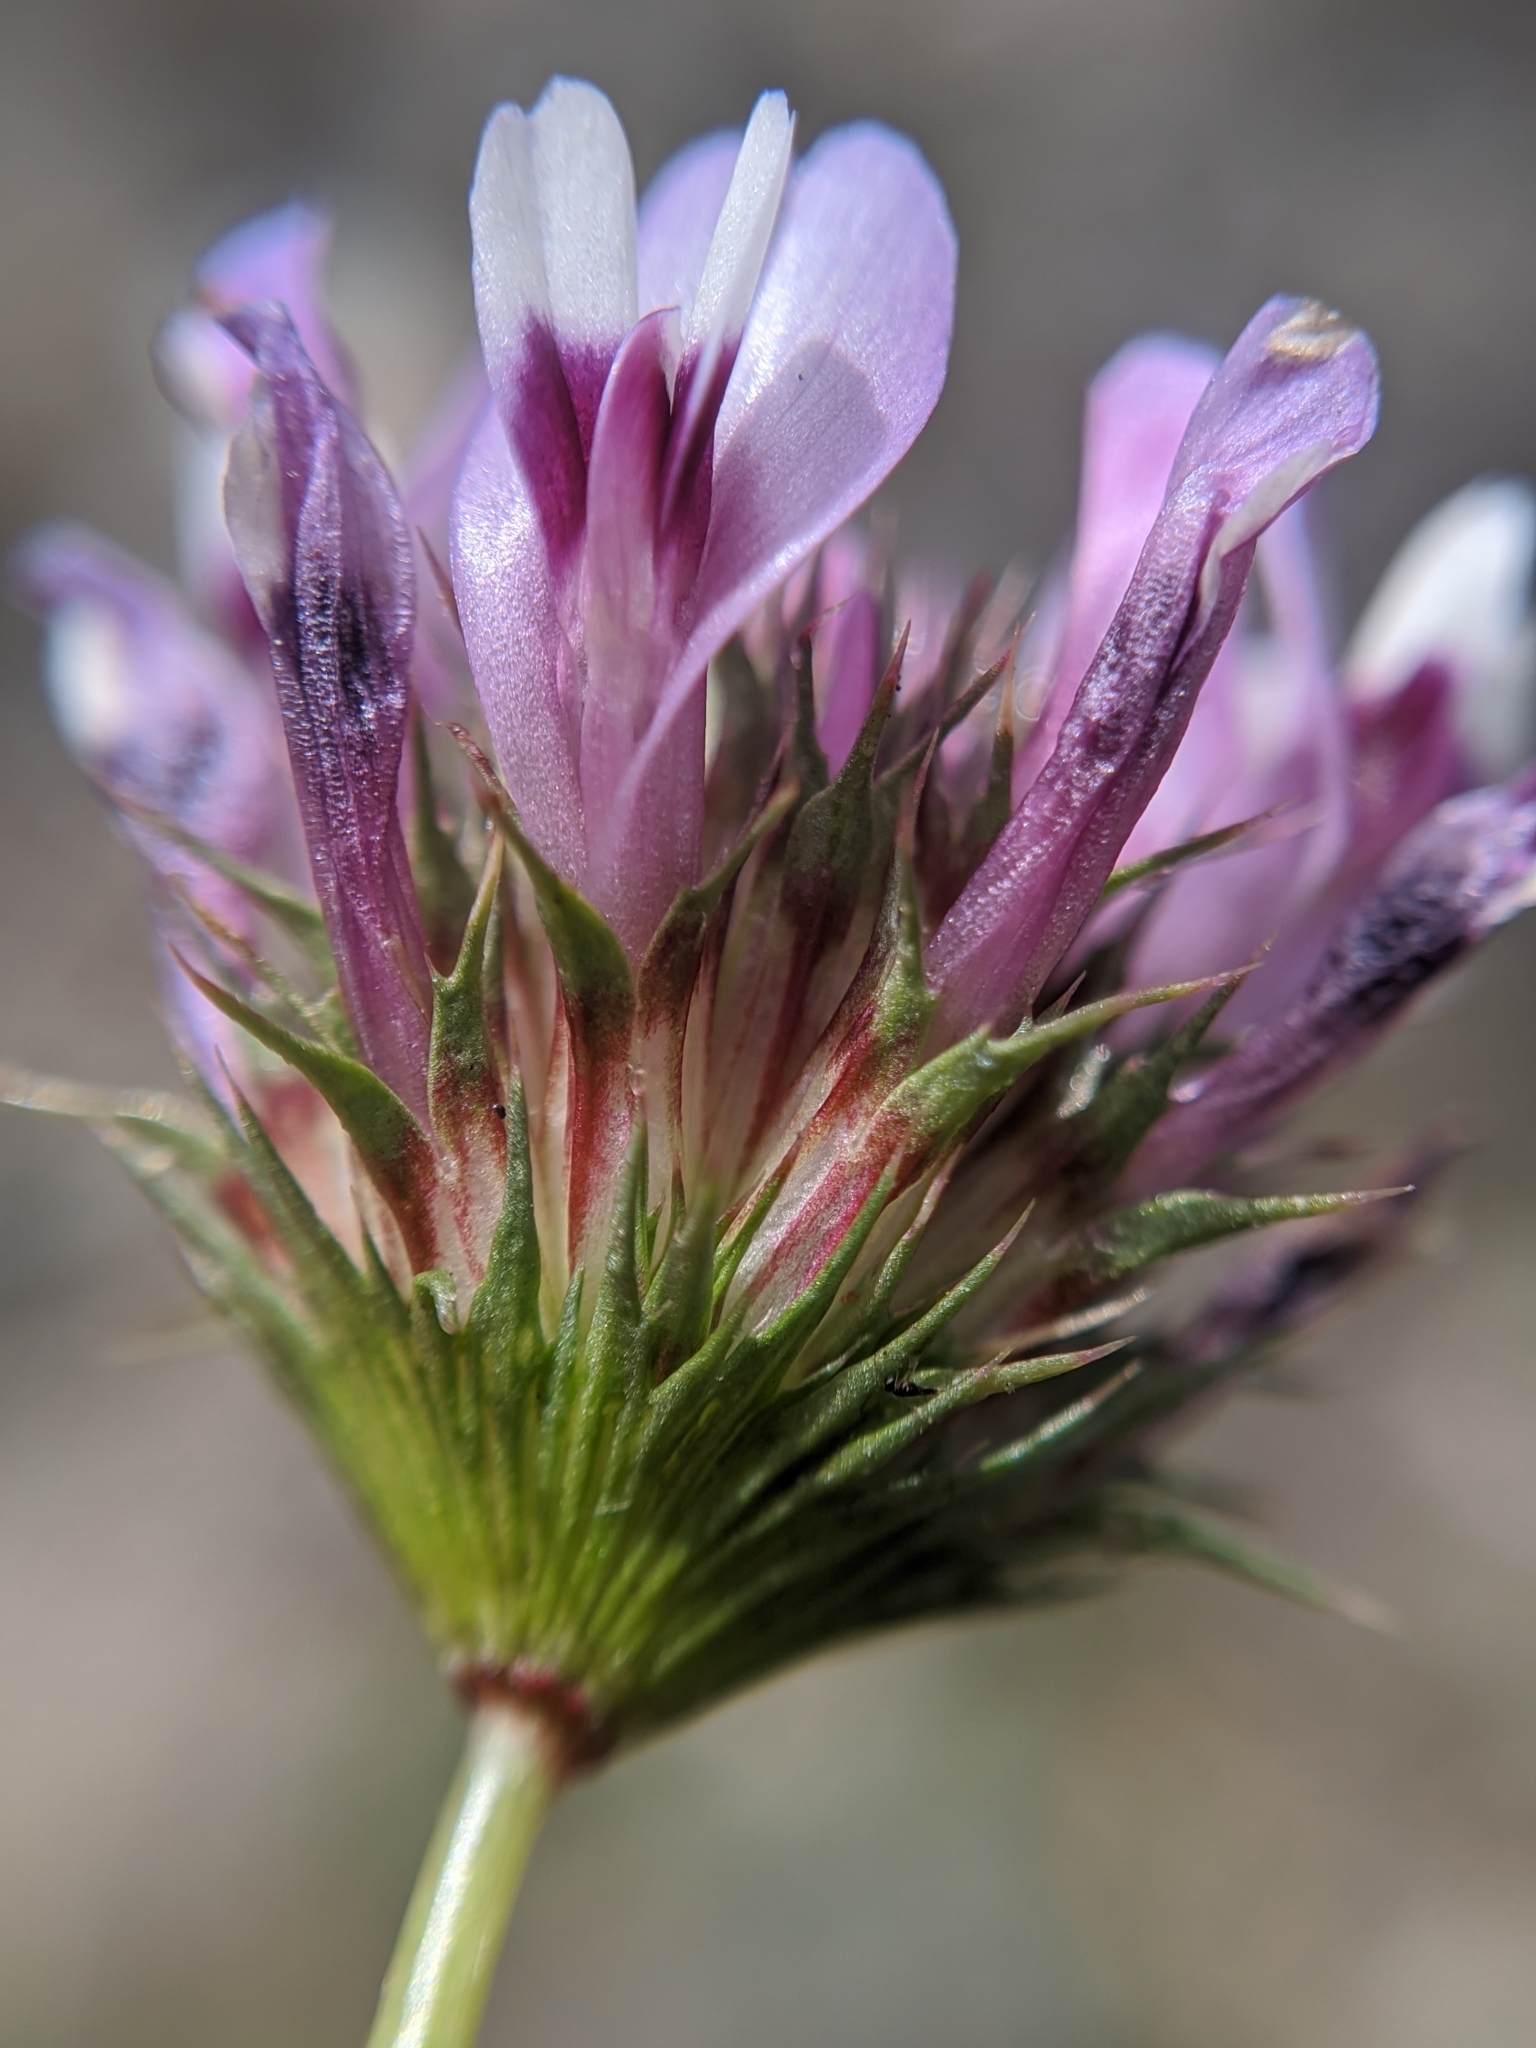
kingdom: Plantae
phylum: Tracheophyta
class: Magnoliopsida
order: Fabales
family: Fabaceae
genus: Trifolium
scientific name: Trifolium willdenovii
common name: Tomcat clover
